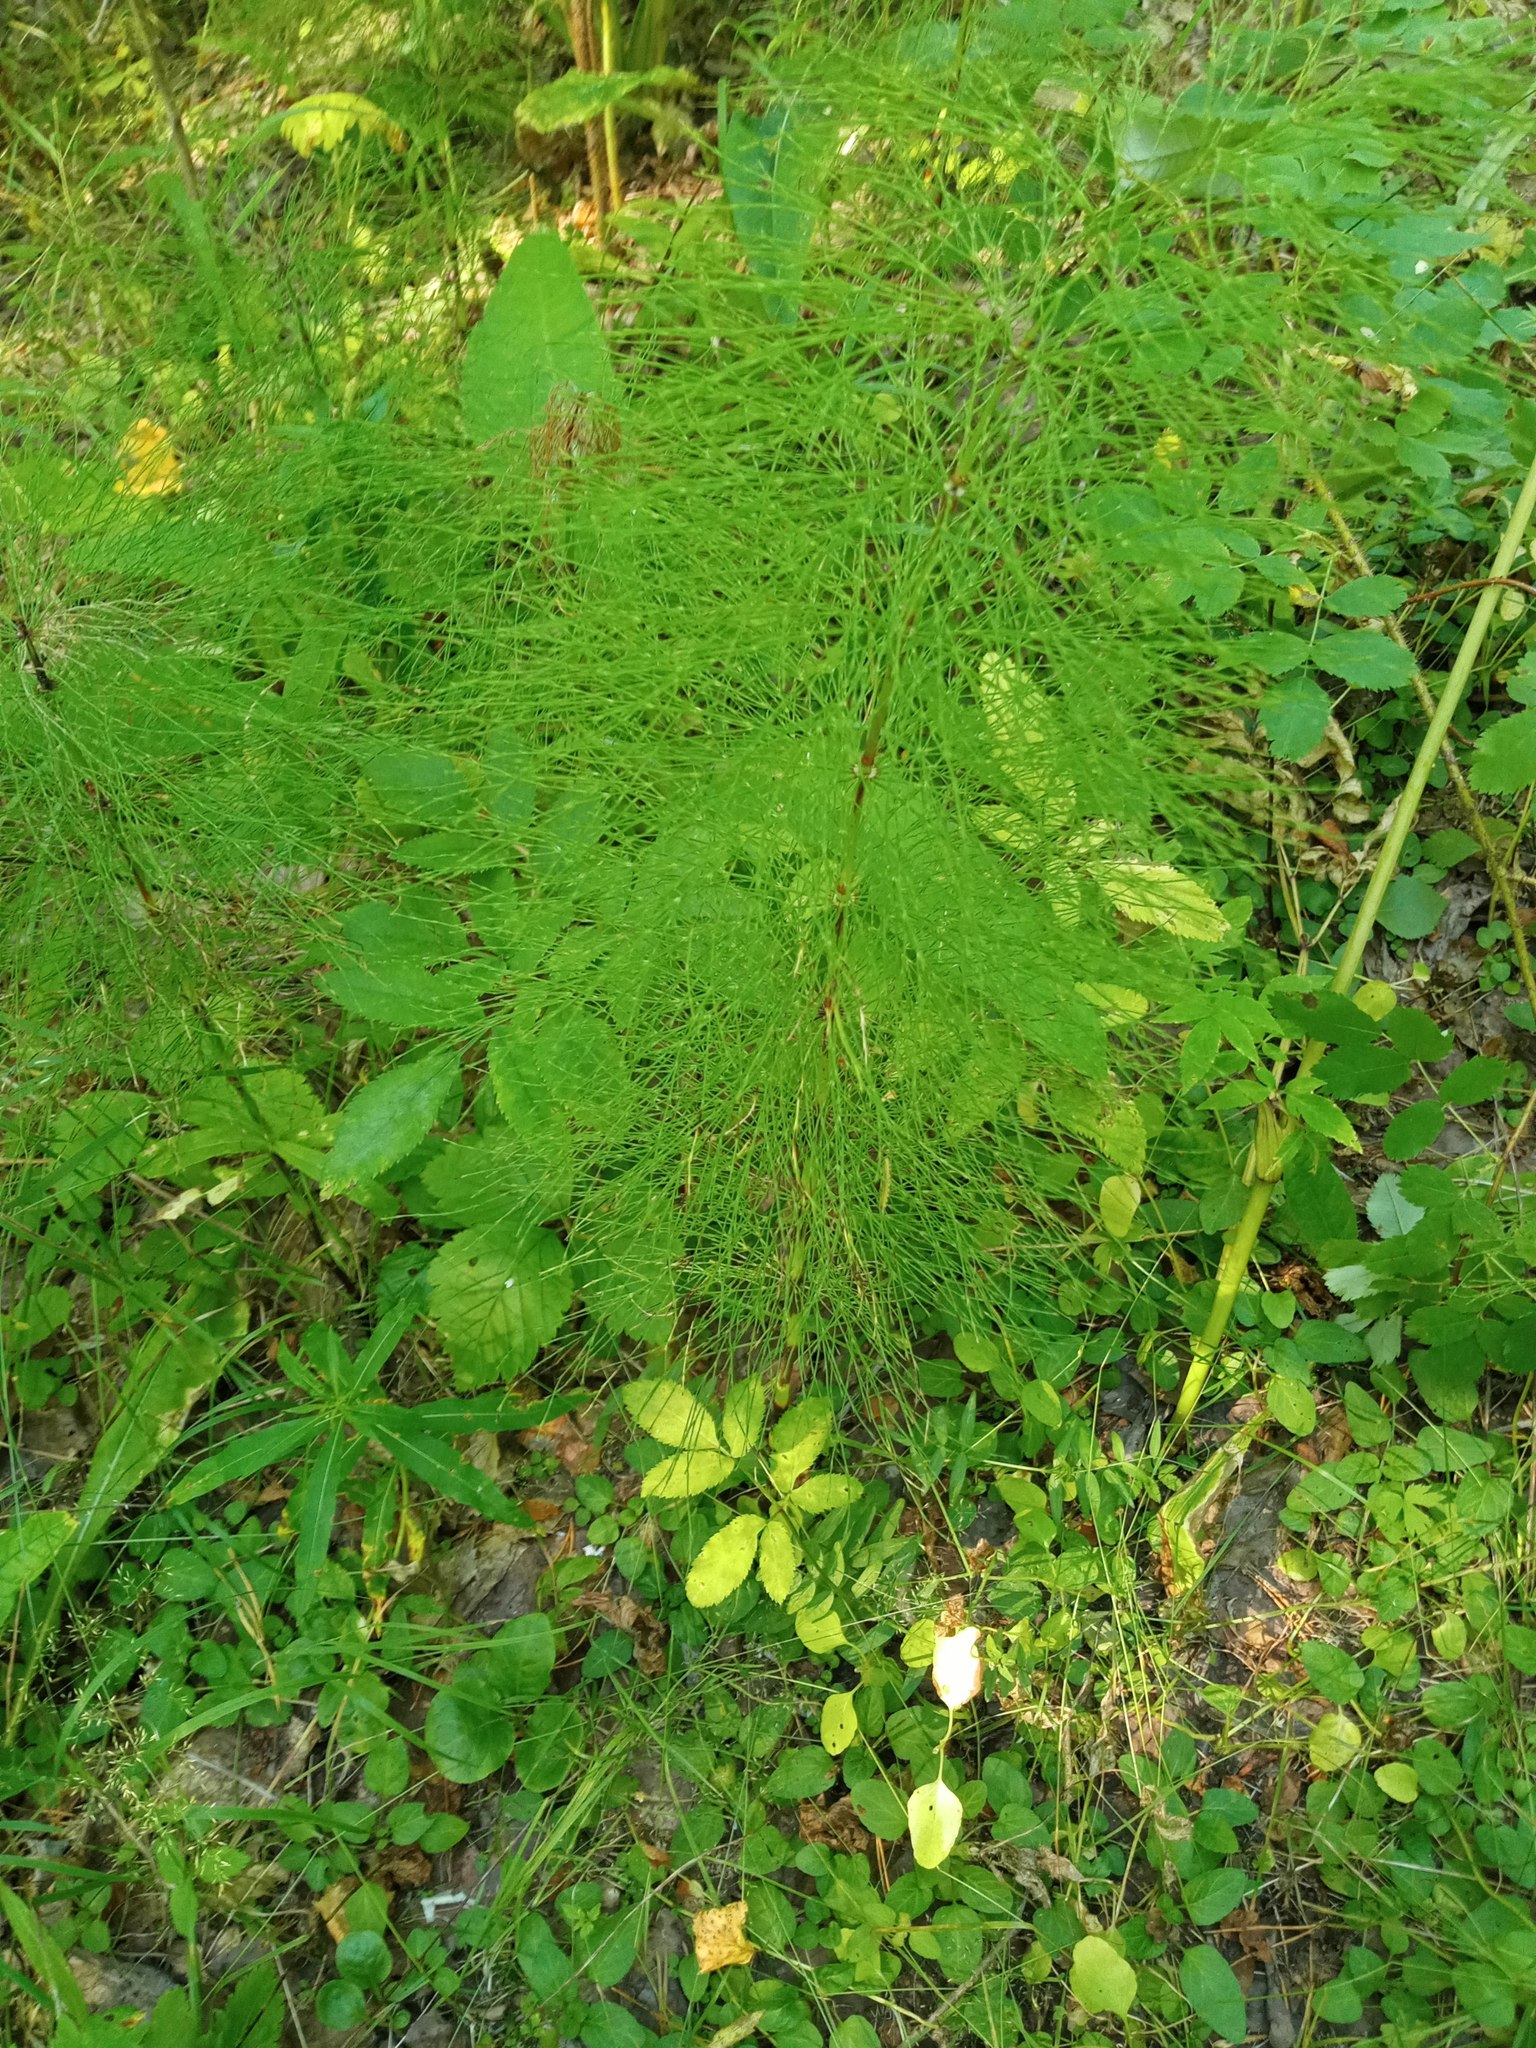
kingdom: Plantae
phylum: Tracheophyta
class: Polypodiopsida
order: Equisetales
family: Equisetaceae
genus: Equisetum
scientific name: Equisetum sylvaticum
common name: Wood horsetail
